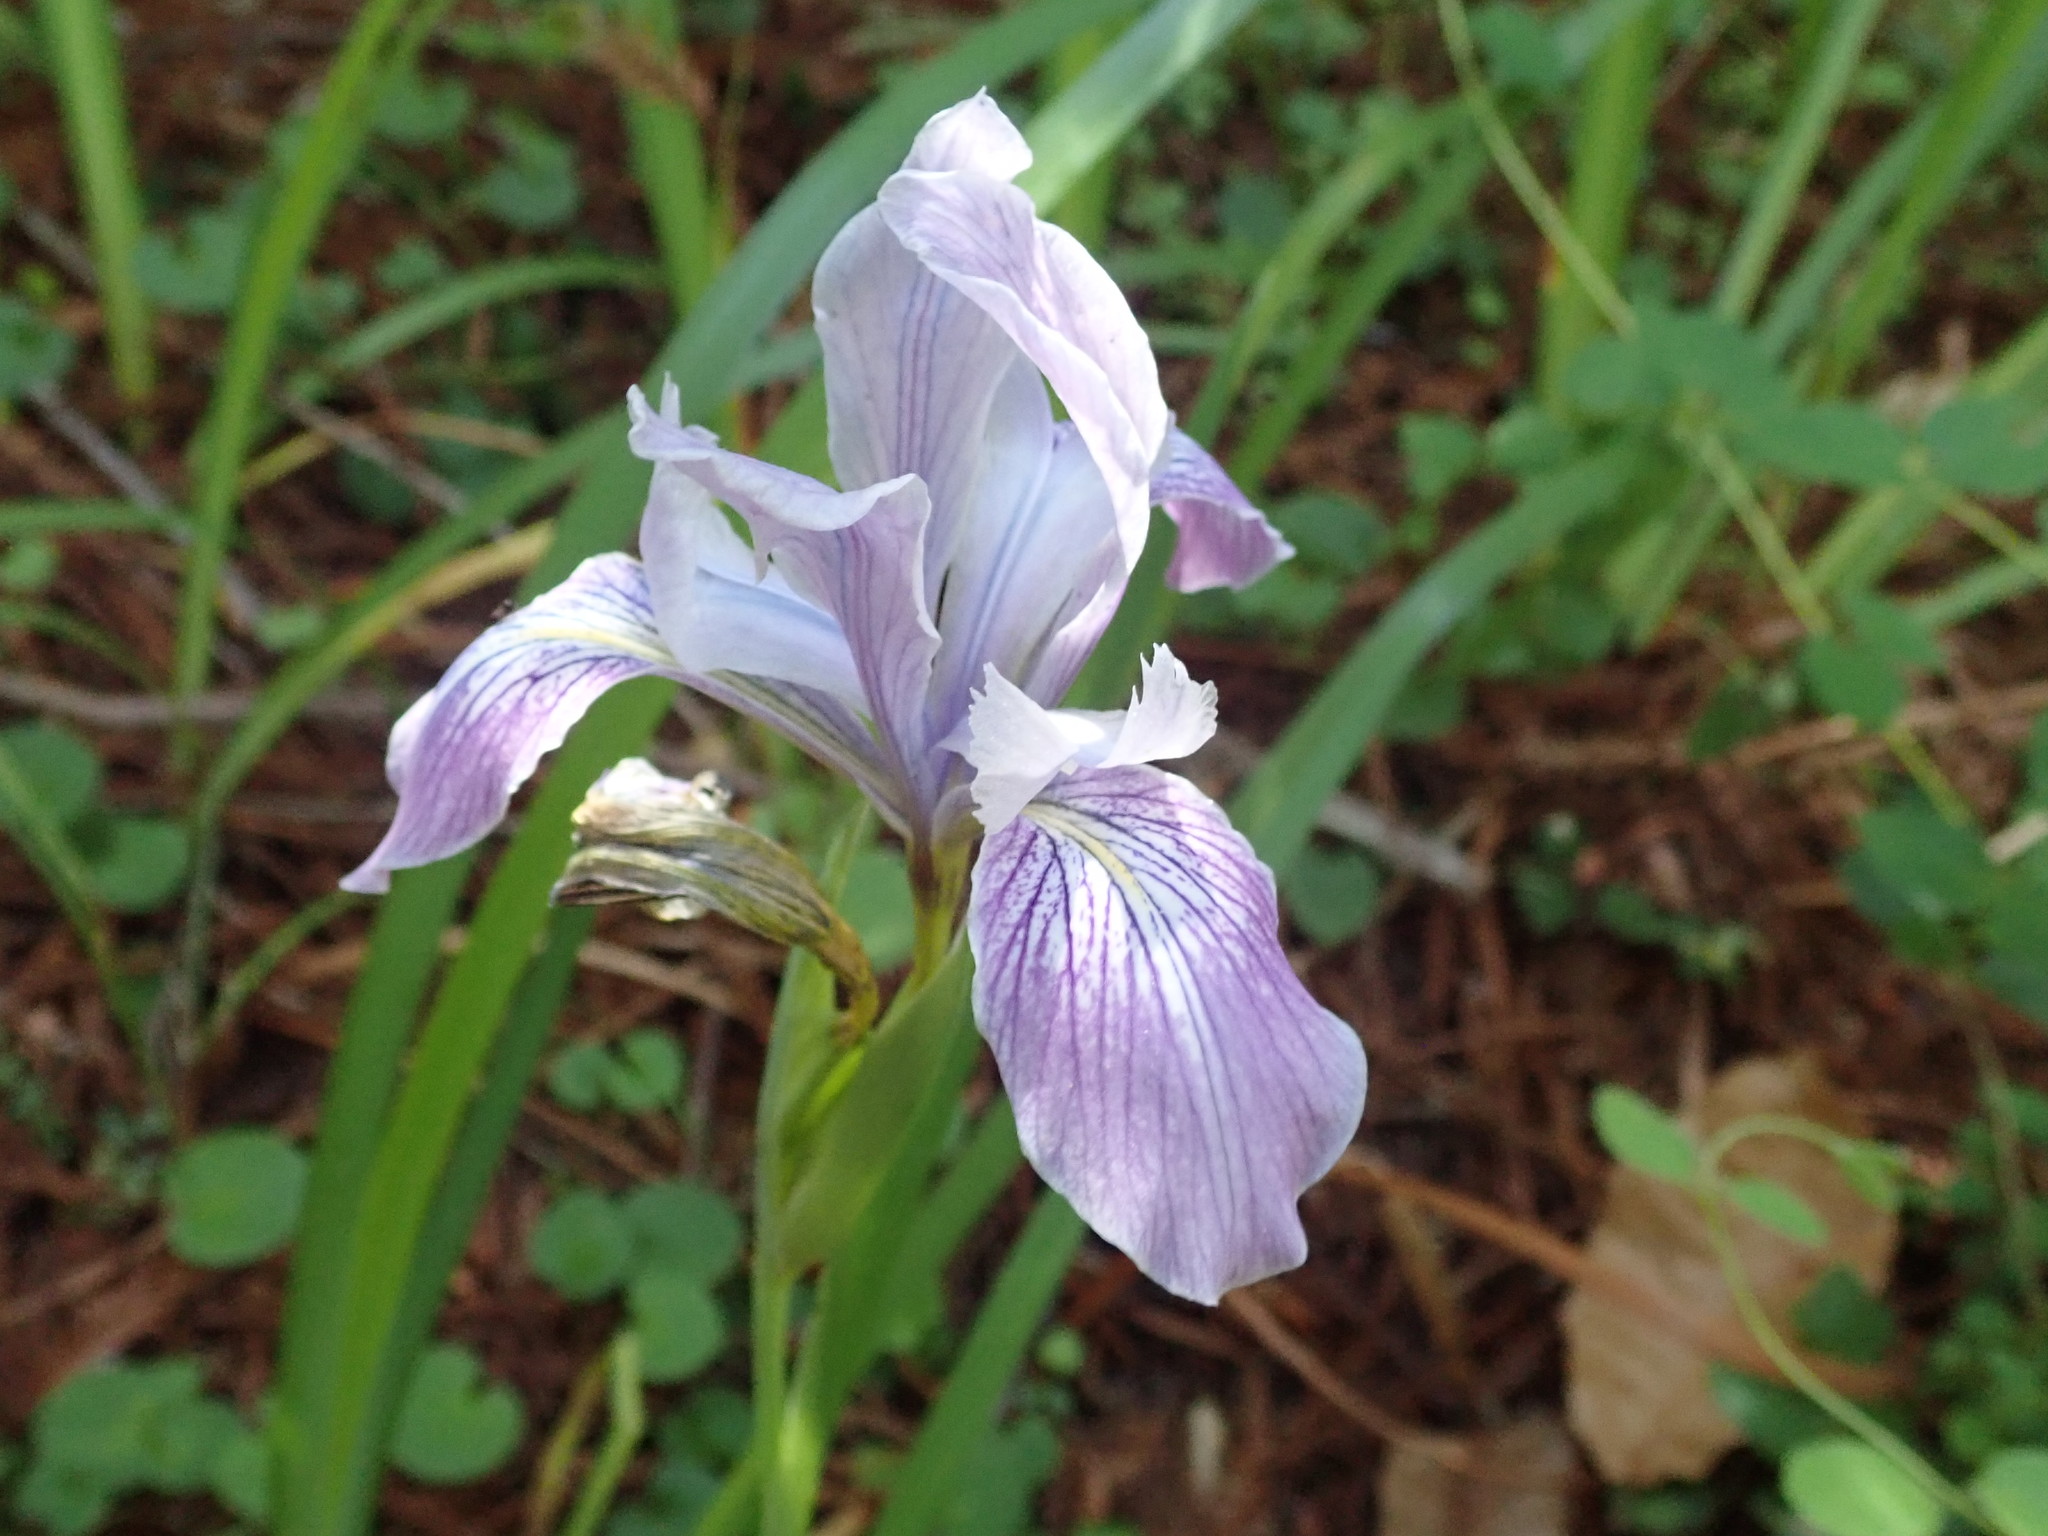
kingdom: Plantae
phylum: Tracheophyta
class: Liliopsida
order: Asparagales
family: Iridaceae
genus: Iris
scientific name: Iris douglasiana
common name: Marin iris
